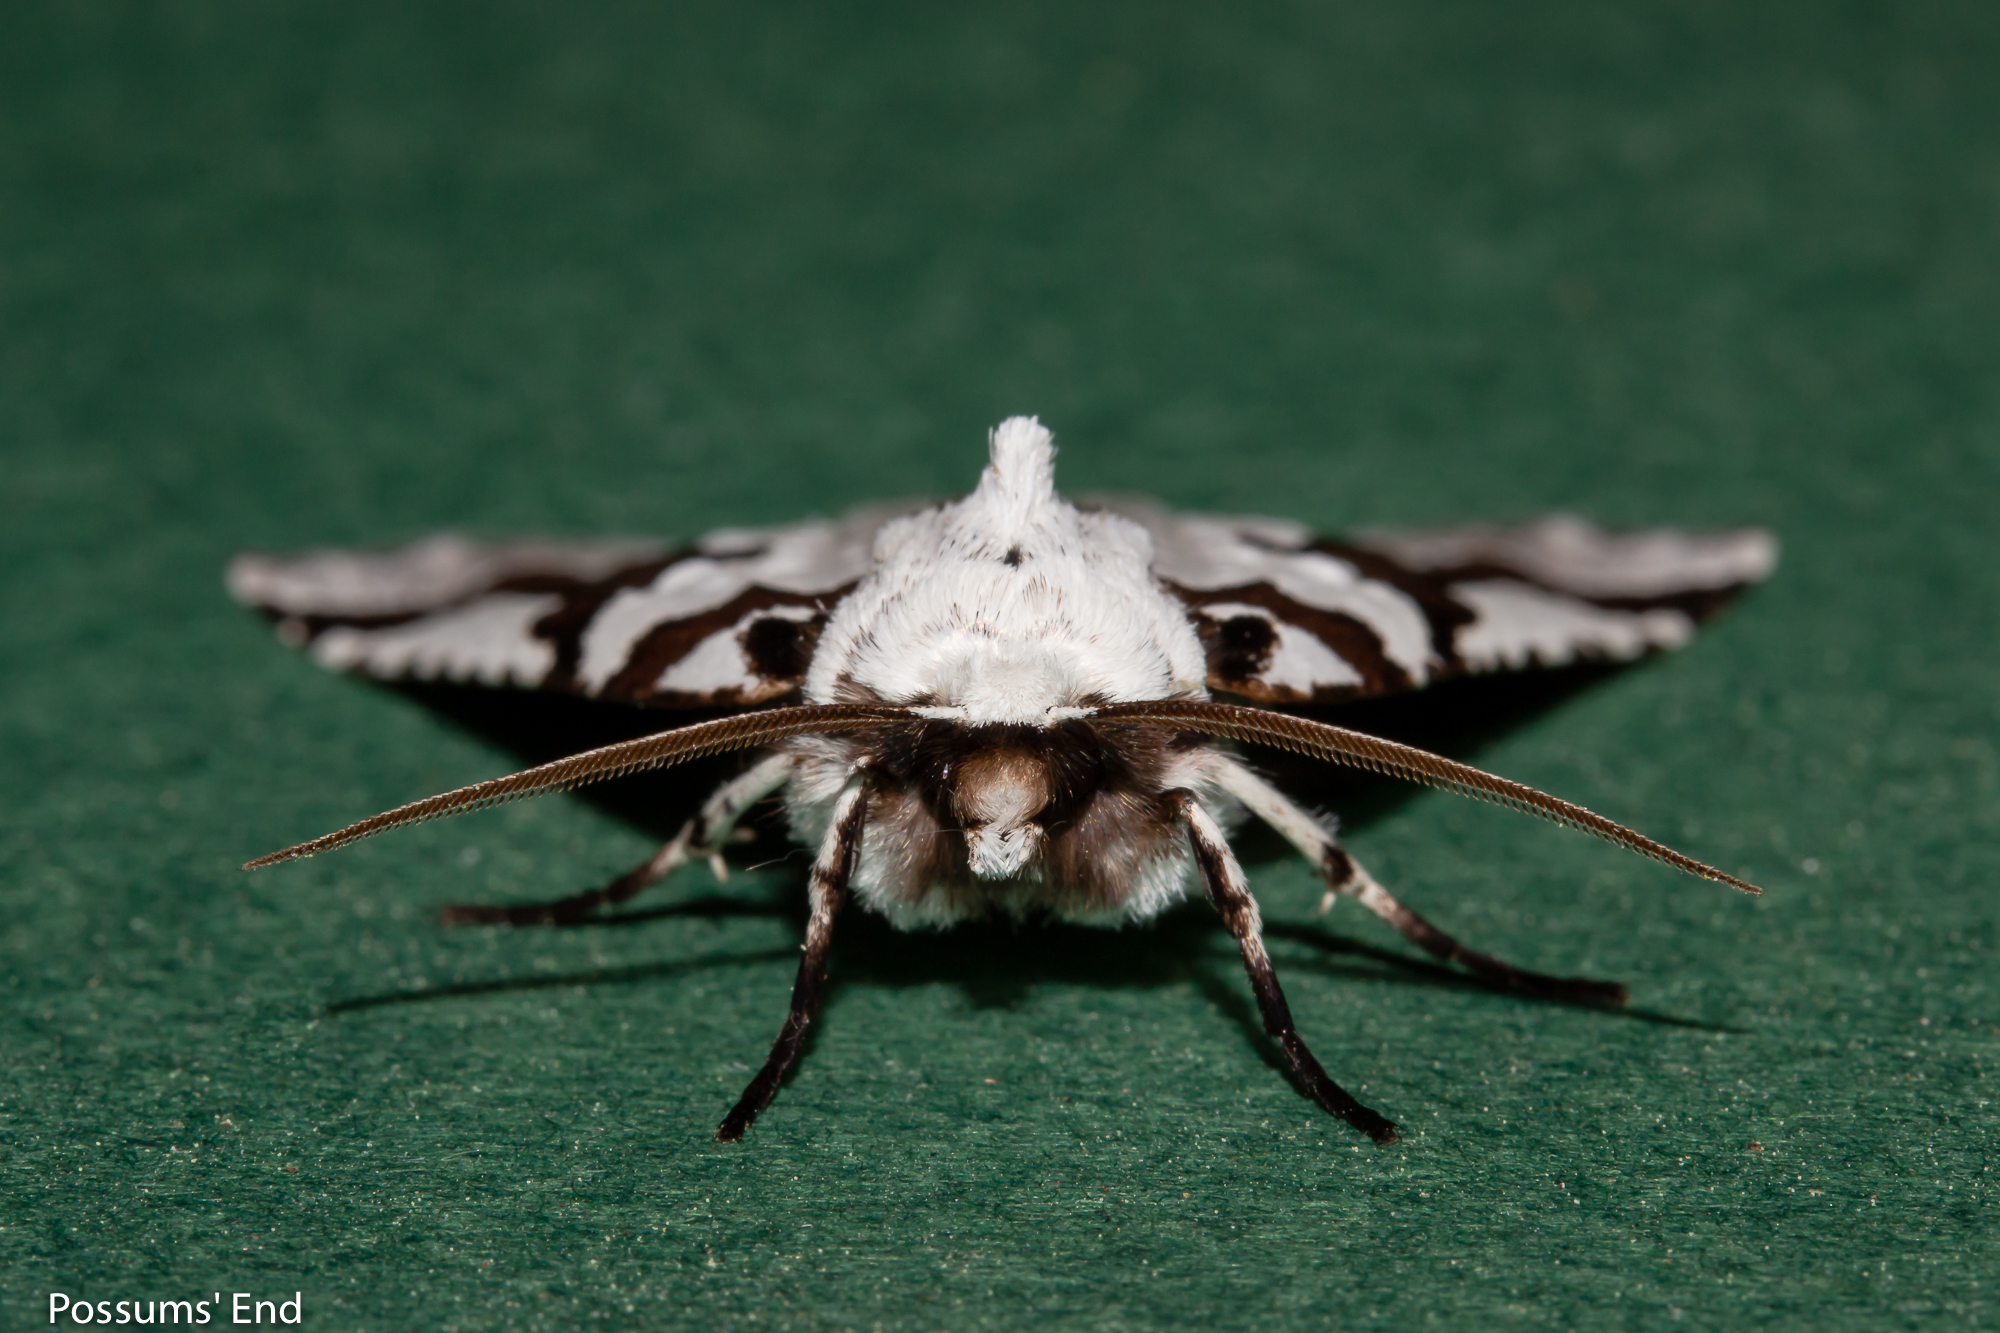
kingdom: Animalia
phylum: Arthropoda
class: Insecta
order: Lepidoptera
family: Geometridae
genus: Declana
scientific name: Declana
